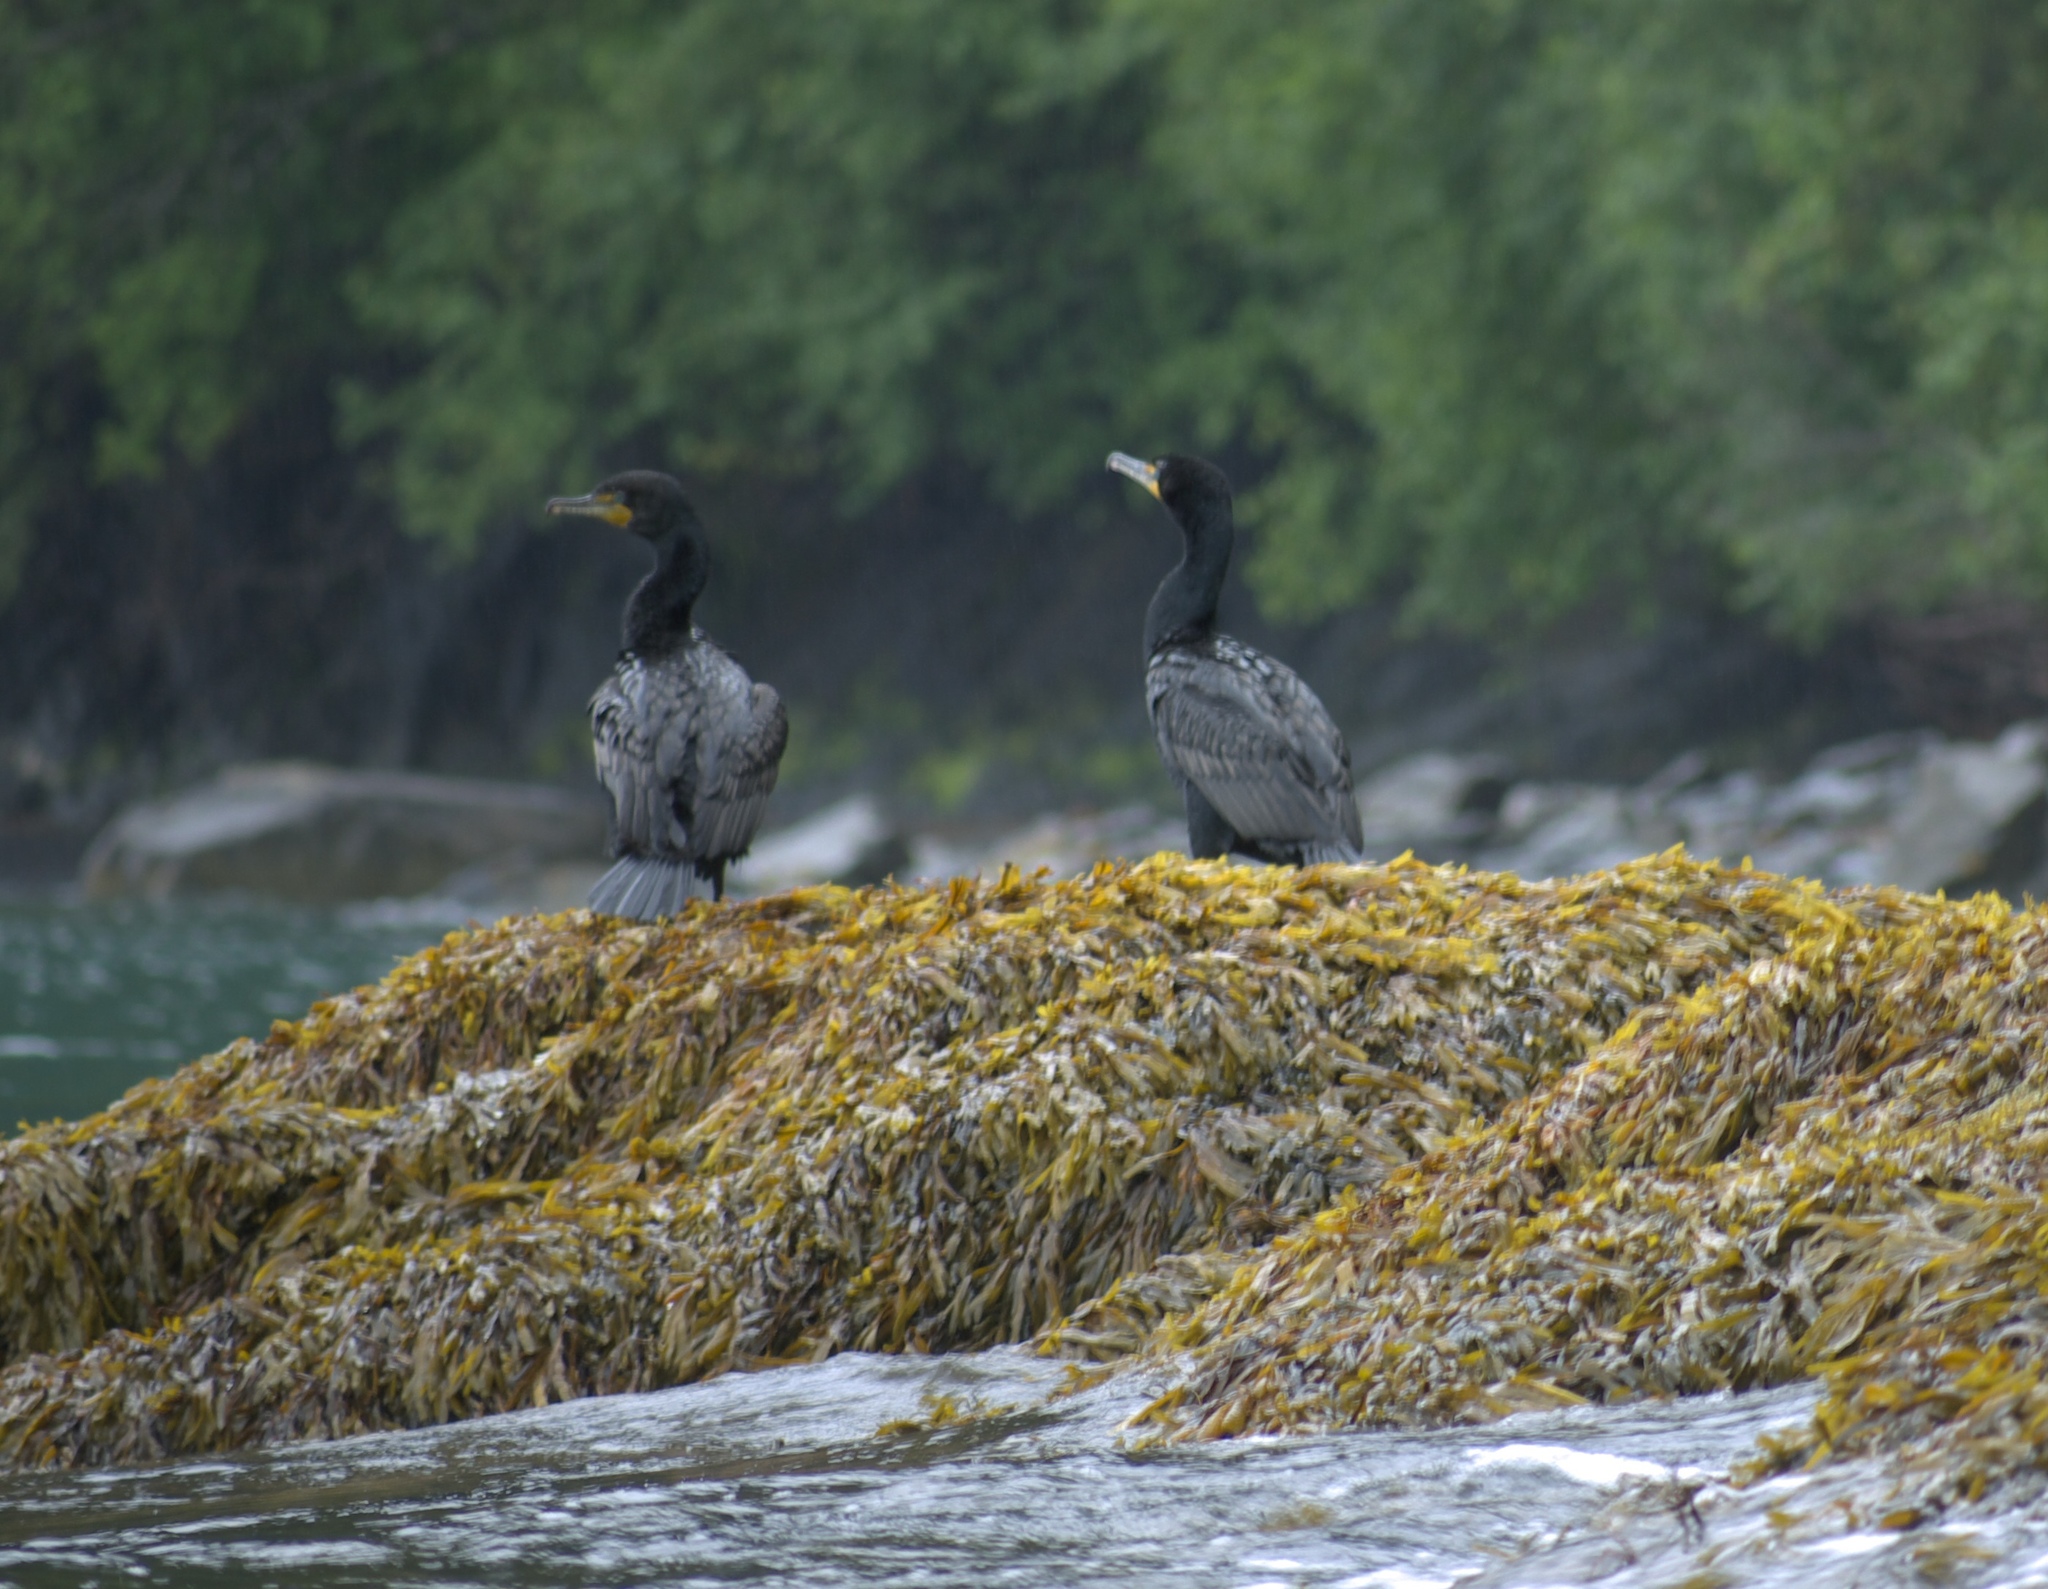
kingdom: Animalia
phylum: Chordata
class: Aves
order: Suliformes
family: Phalacrocoracidae
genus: Phalacrocorax
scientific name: Phalacrocorax auritus
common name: Double-crested cormorant
